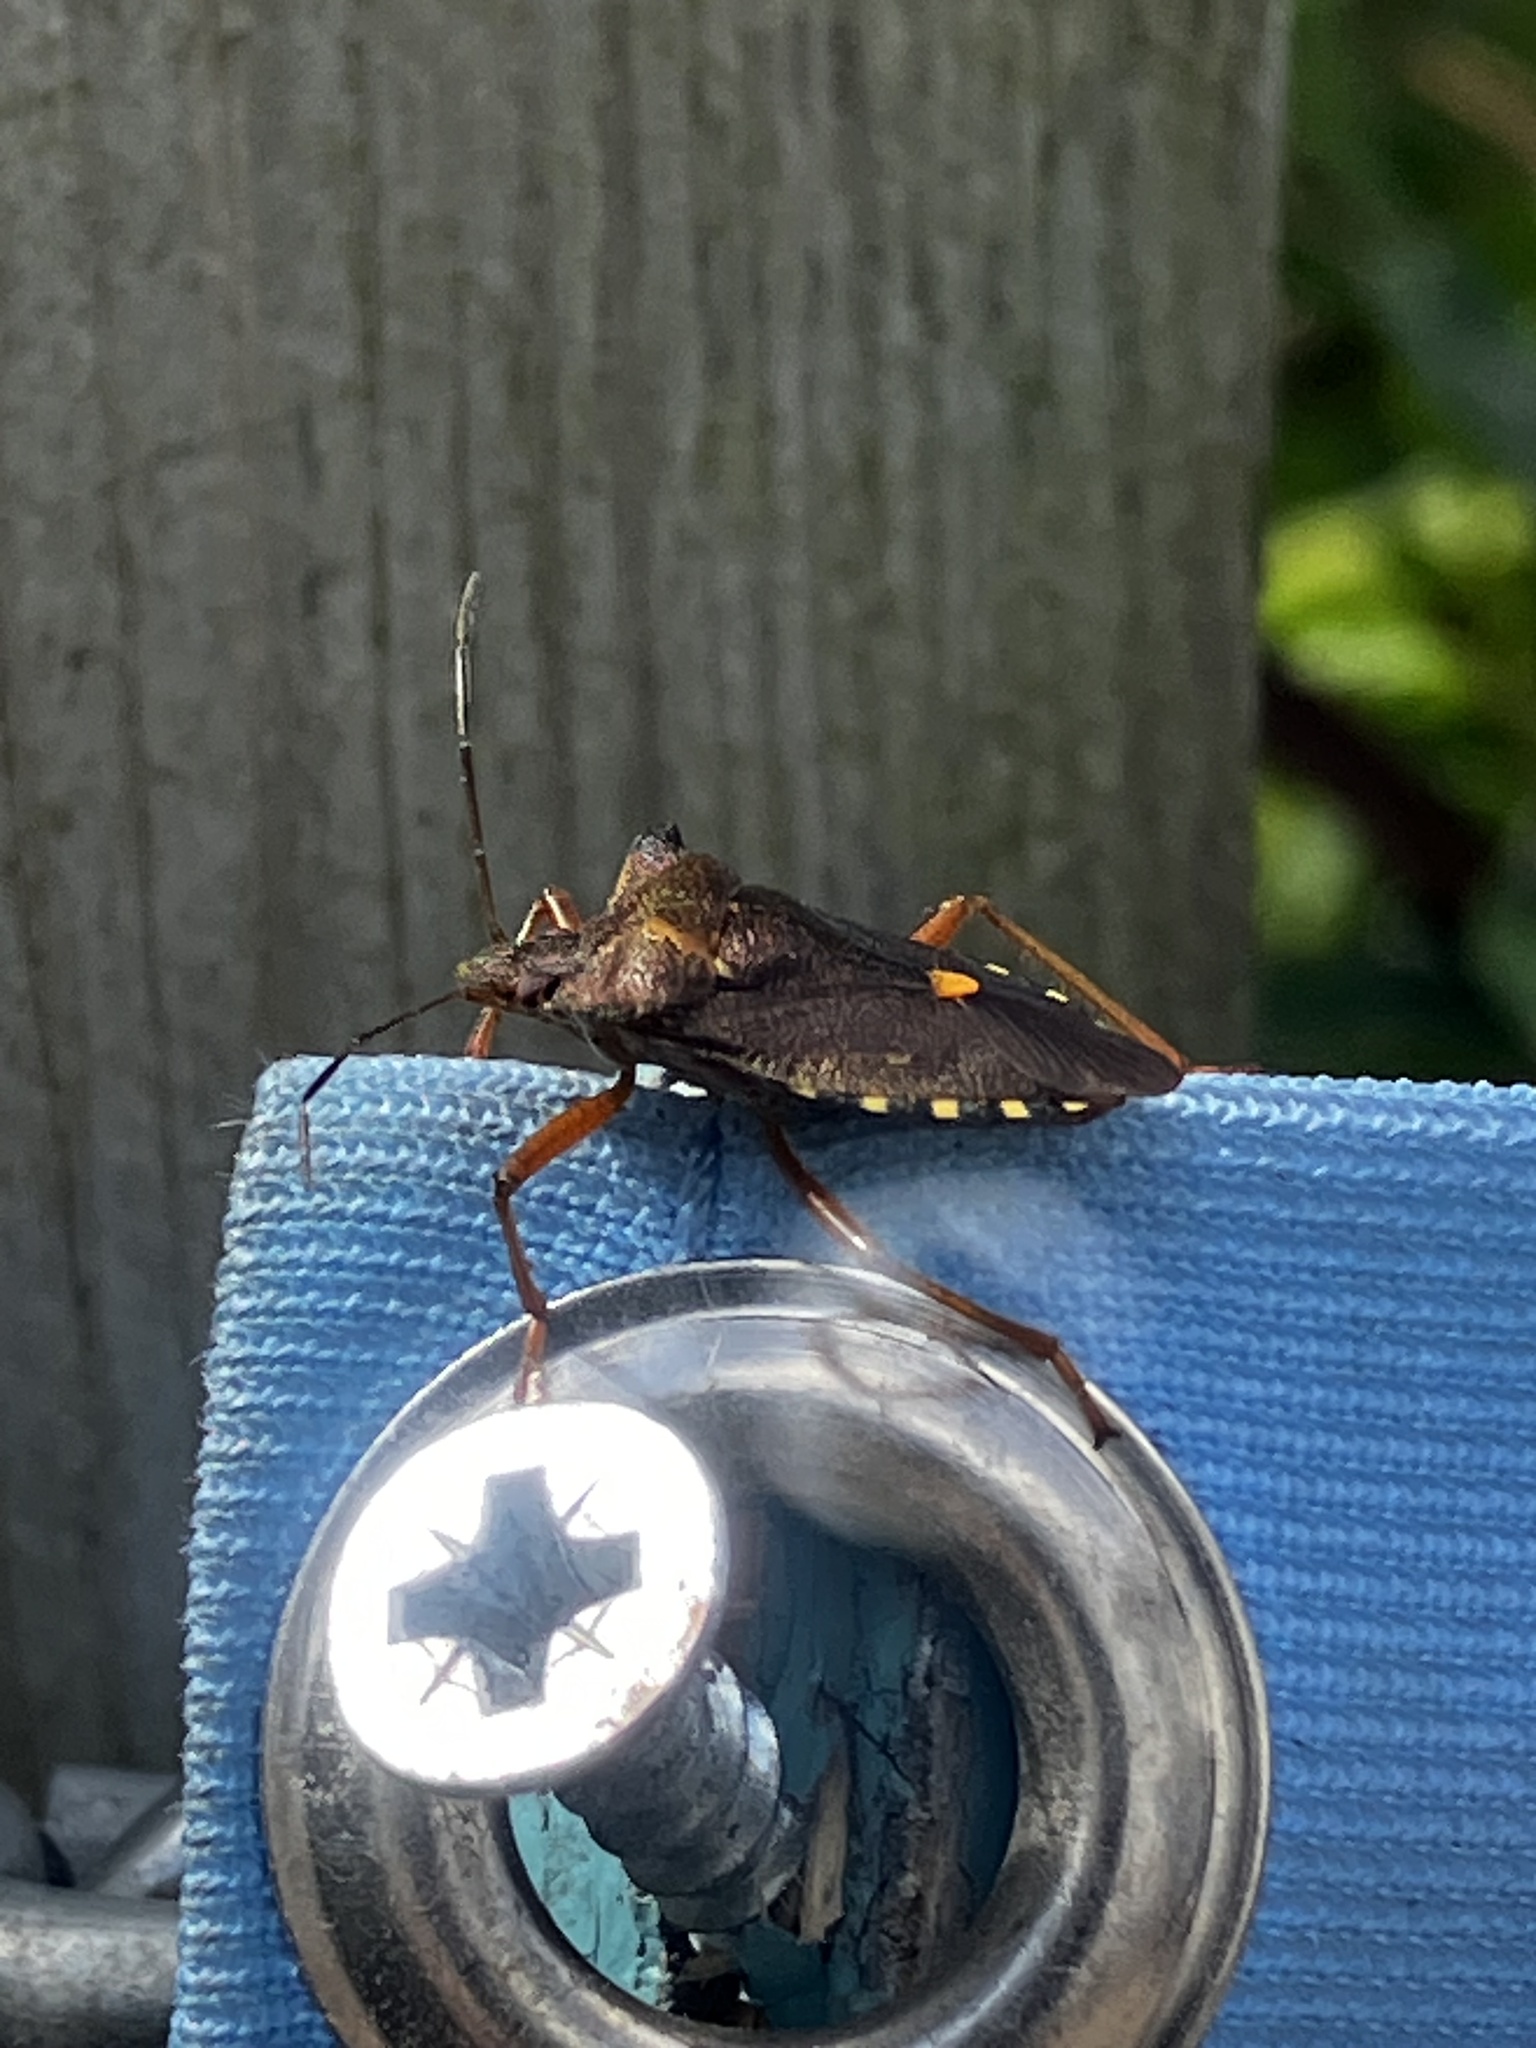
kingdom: Animalia
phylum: Arthropoda
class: Insecta
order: Hemiptera
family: Pentatomidae
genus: Pentatoma
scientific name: Pentatoma rufipes
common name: Forest bug
